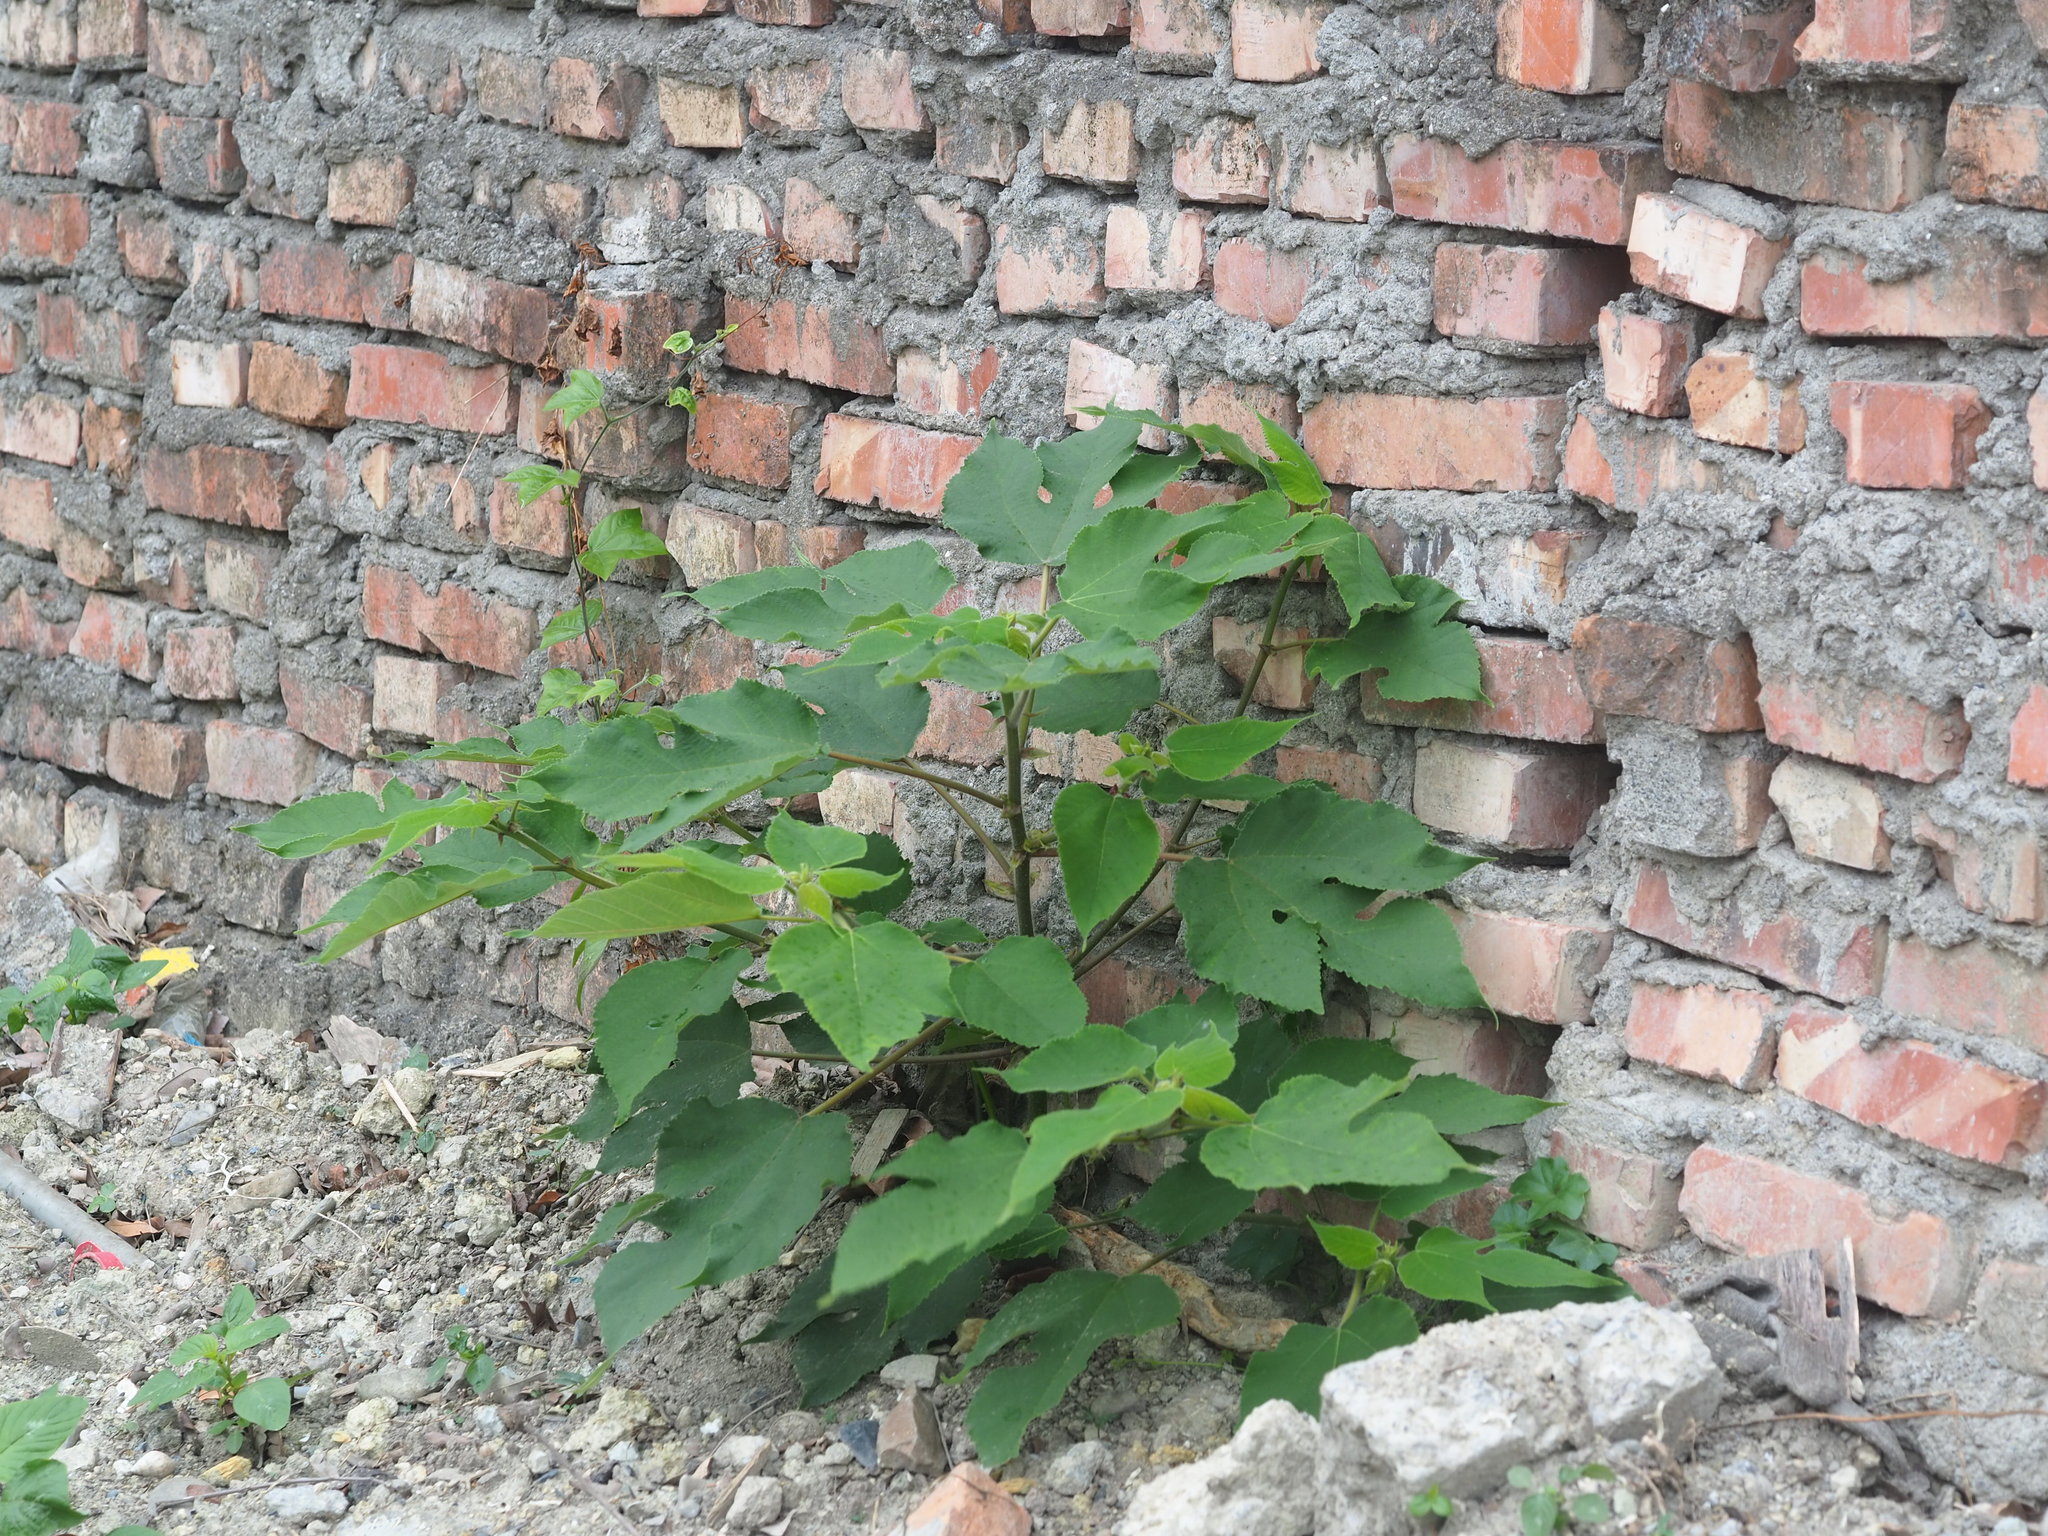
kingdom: Plantae
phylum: Tracheophyta
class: Magnoliopsida
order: Rosales
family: Moraceae
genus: Broussonetia
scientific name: Broussonetia papyrifera
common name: Paper mulberry
